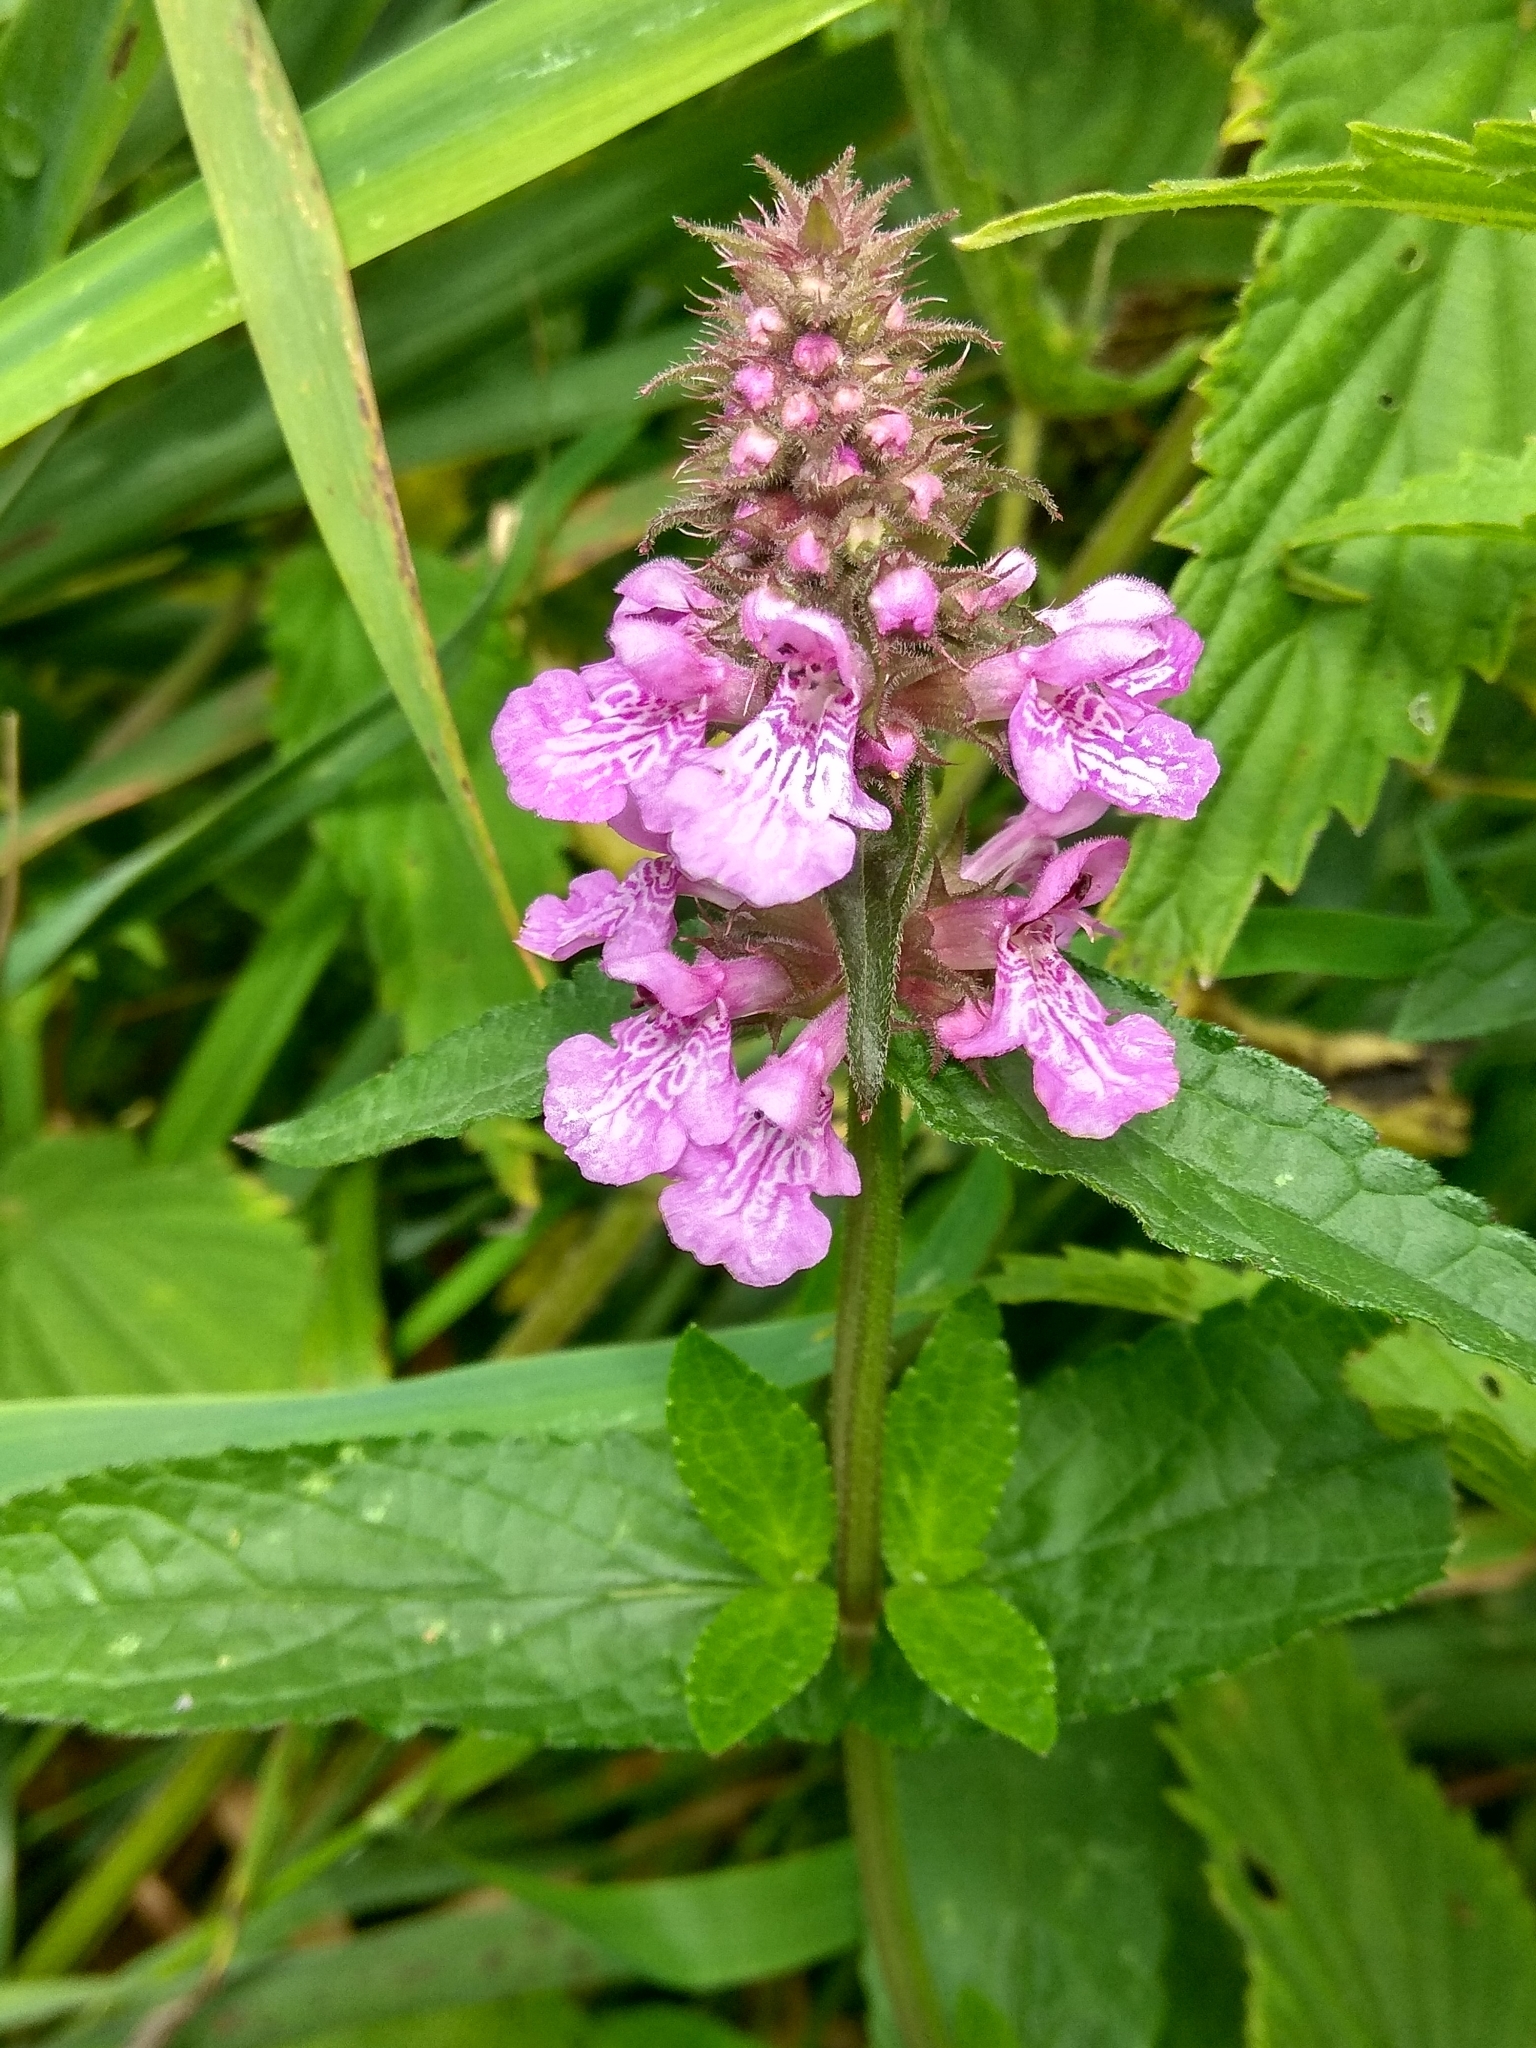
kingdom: Plantae
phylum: Tracheophyta
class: Magnoliopsida
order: Lamiales
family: Lamiaceae
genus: Stachys
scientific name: Stachys palustris
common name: Marsh woundwort
